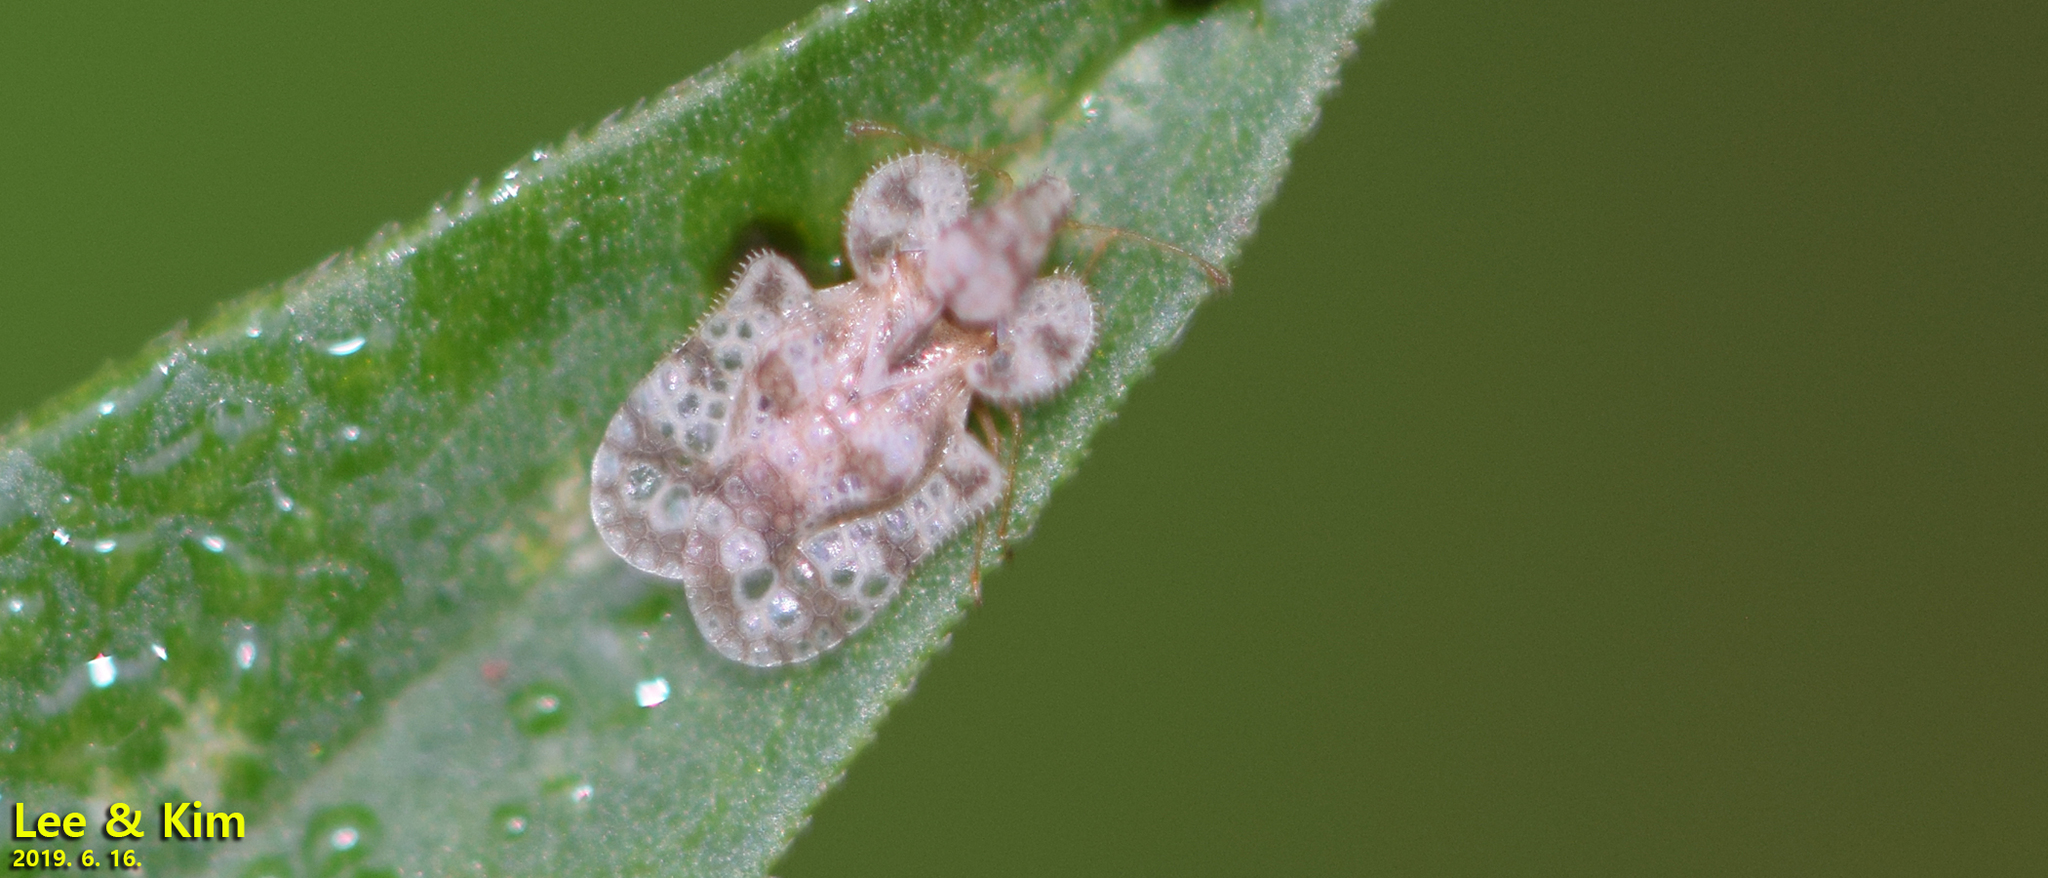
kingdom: Animalia
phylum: Arthropoda
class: Insecta
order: Hemiptera
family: Tingidae
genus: Corythucha
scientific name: Corythucha marmorata
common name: Chrysanthemum lace bug
